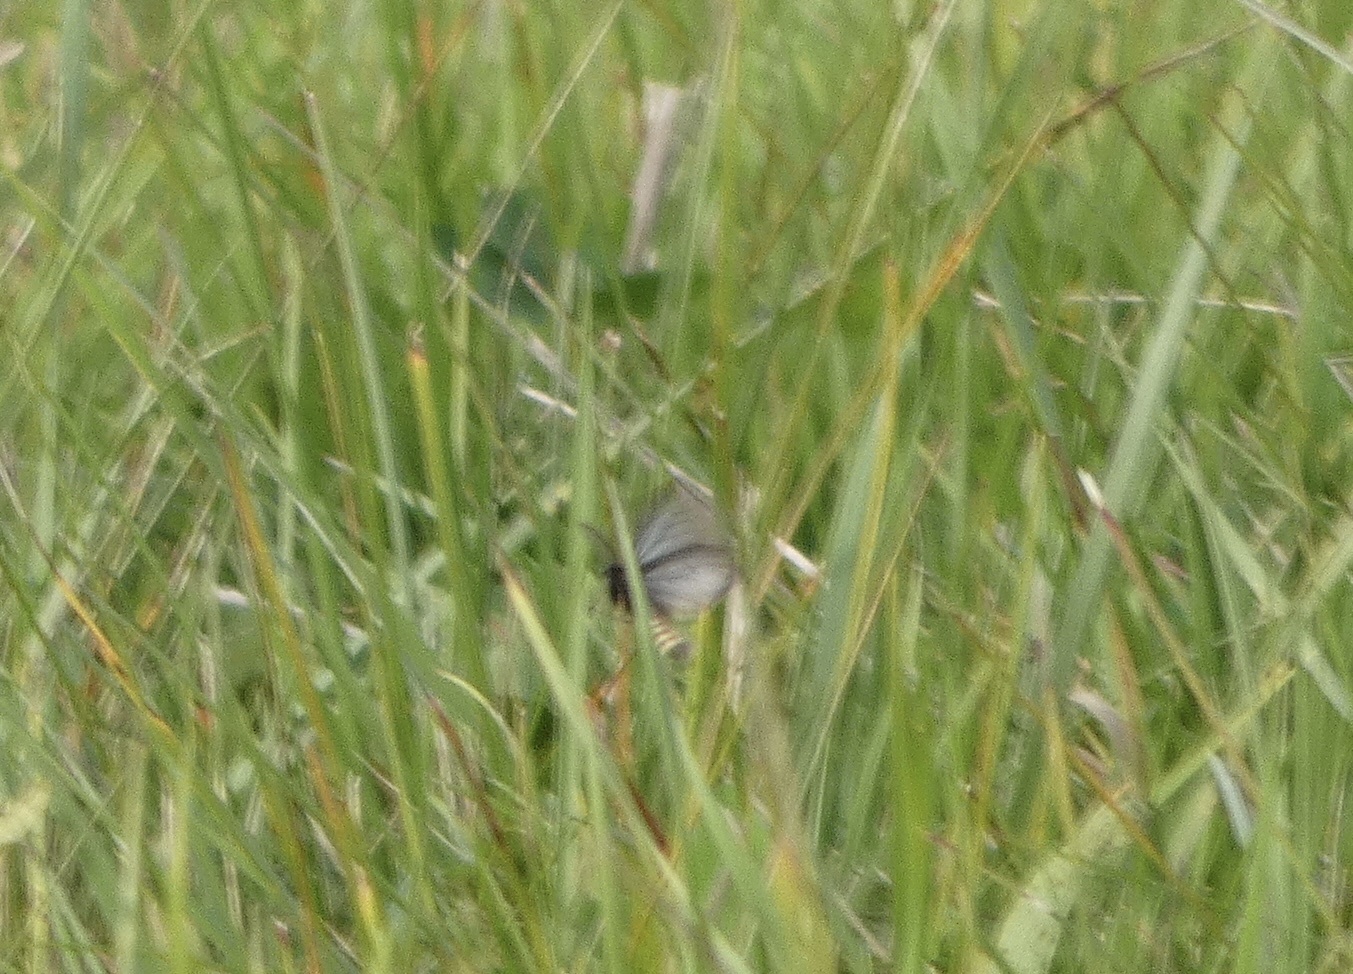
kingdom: Animalia
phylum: Arthropoda
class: Insecta
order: Lepidoptera
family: Erebidae
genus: Penthophera
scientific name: Penthophera morio
